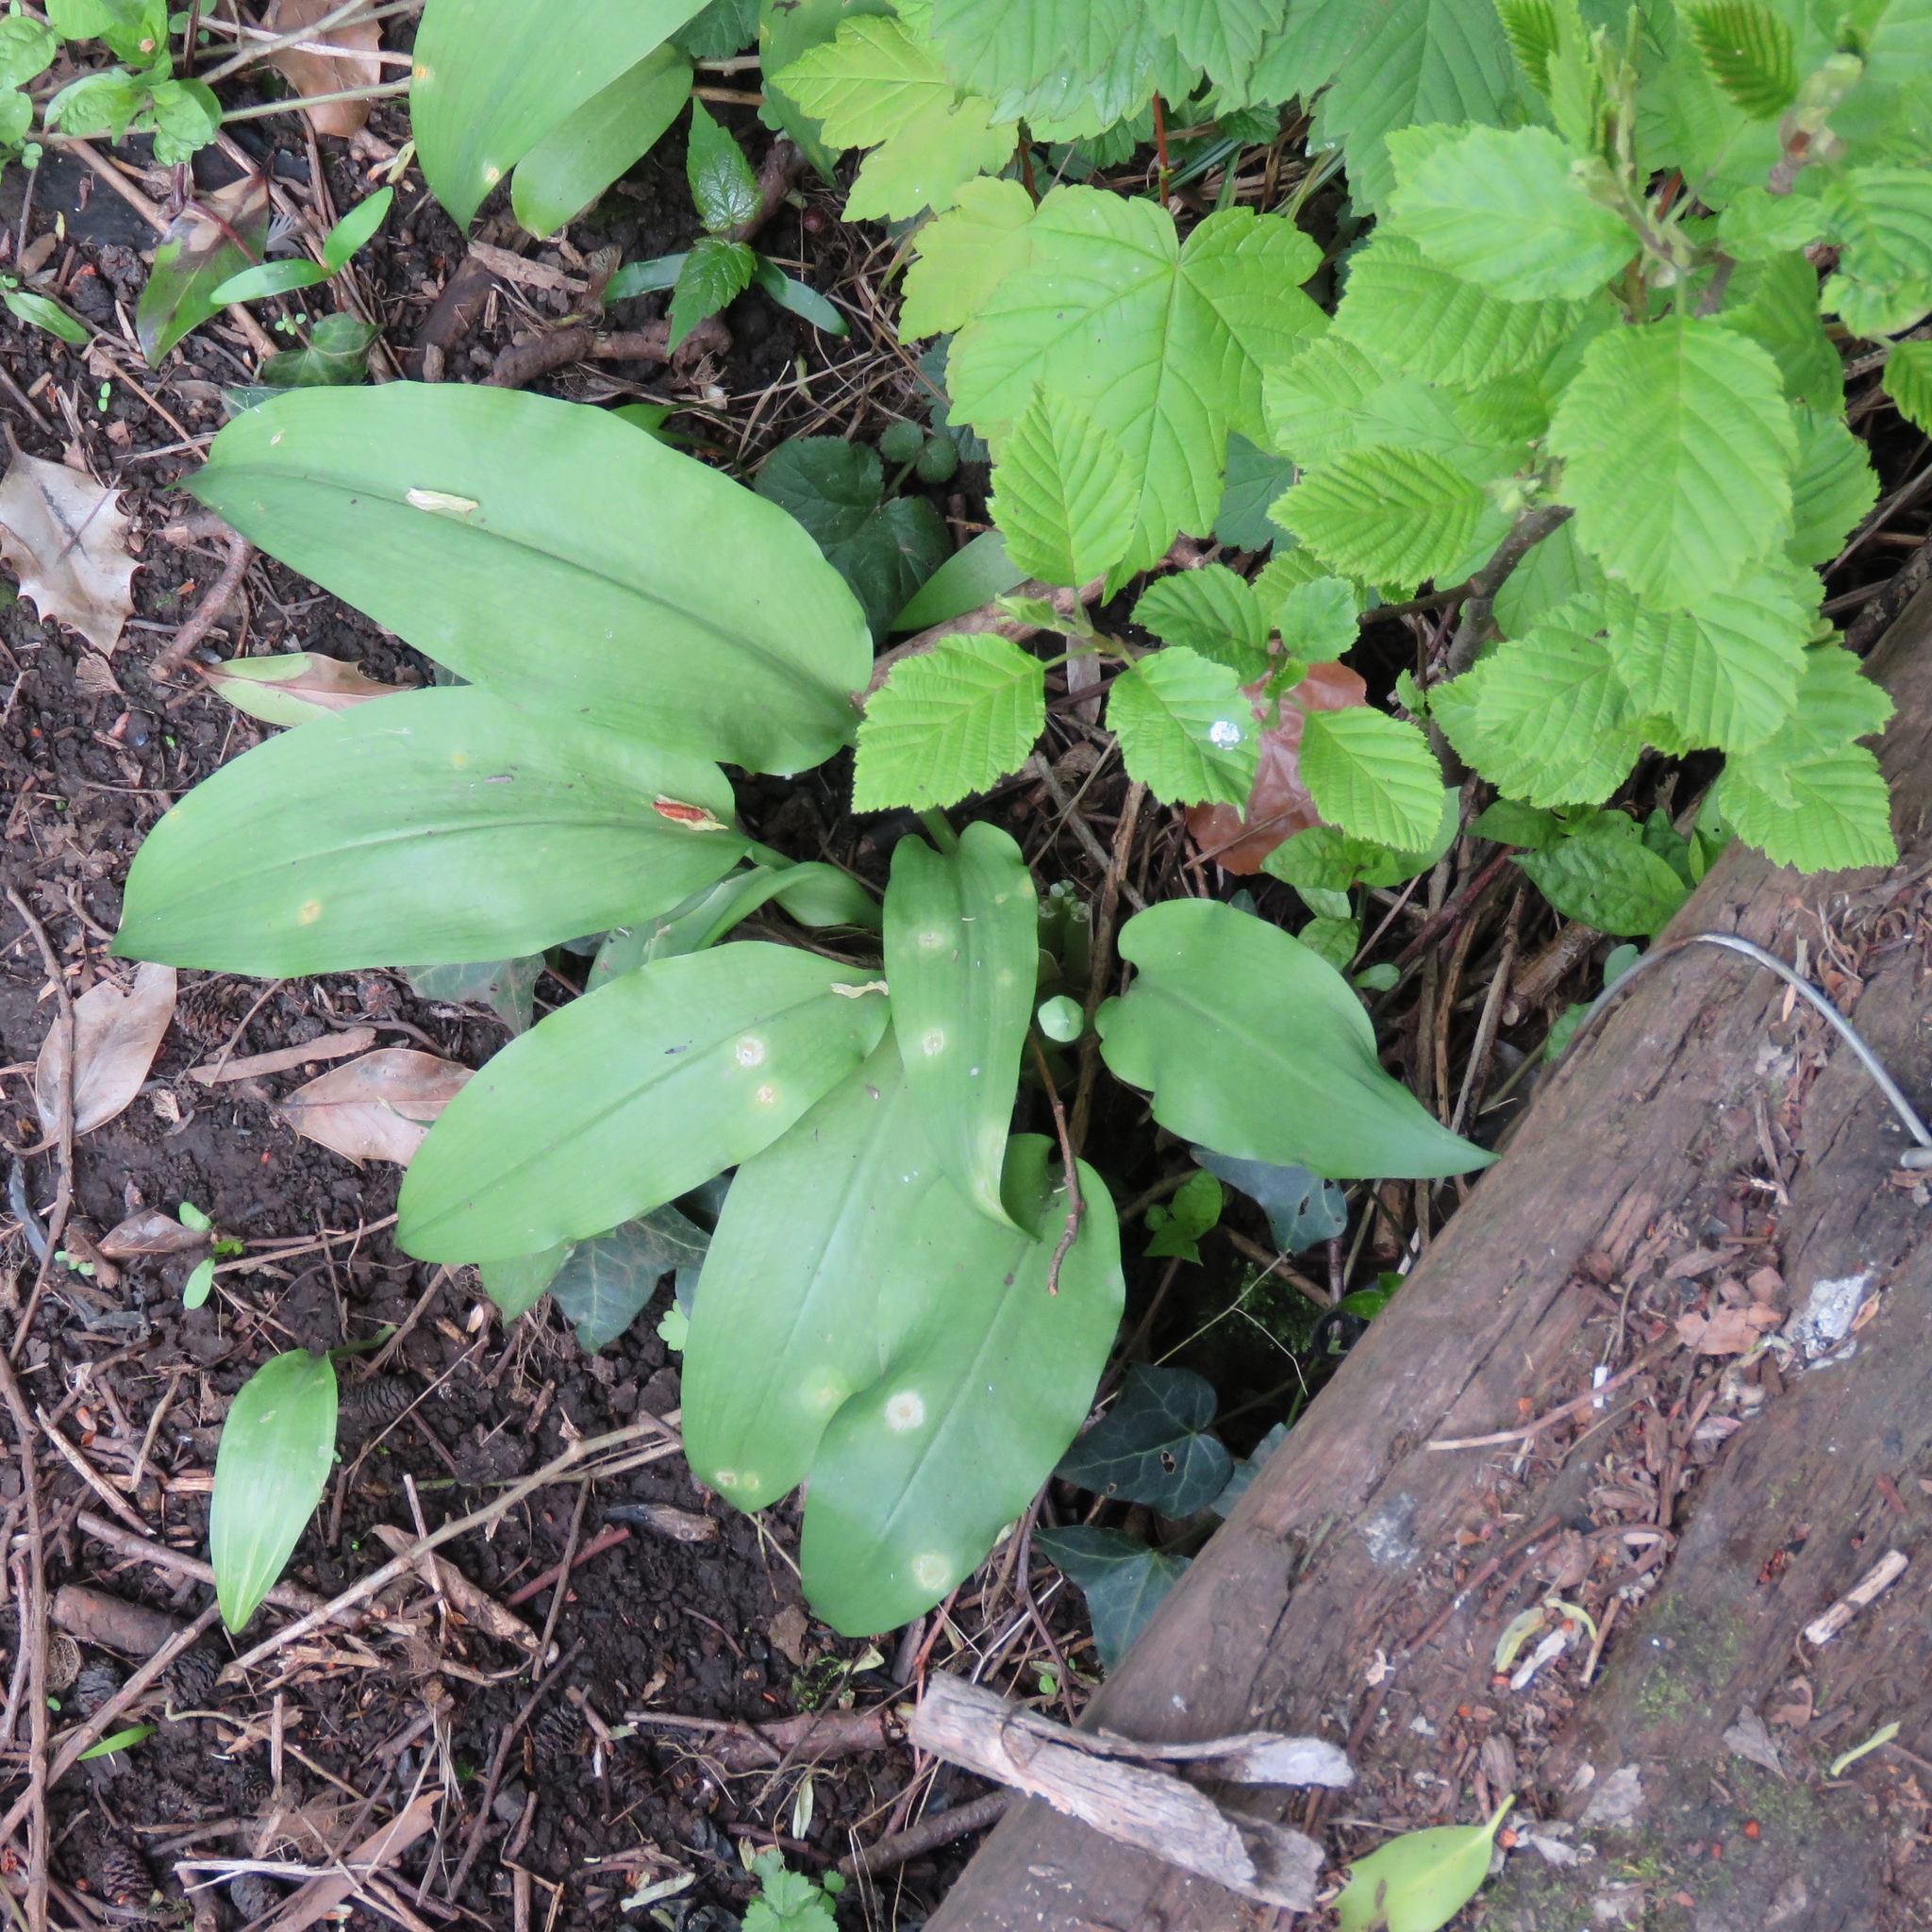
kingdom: Plantae
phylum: Tracheophyta
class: Liliopsida
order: Asparagales
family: Amaryllidaceae
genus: Allium
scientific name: Allium ursinum
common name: Ramsons
